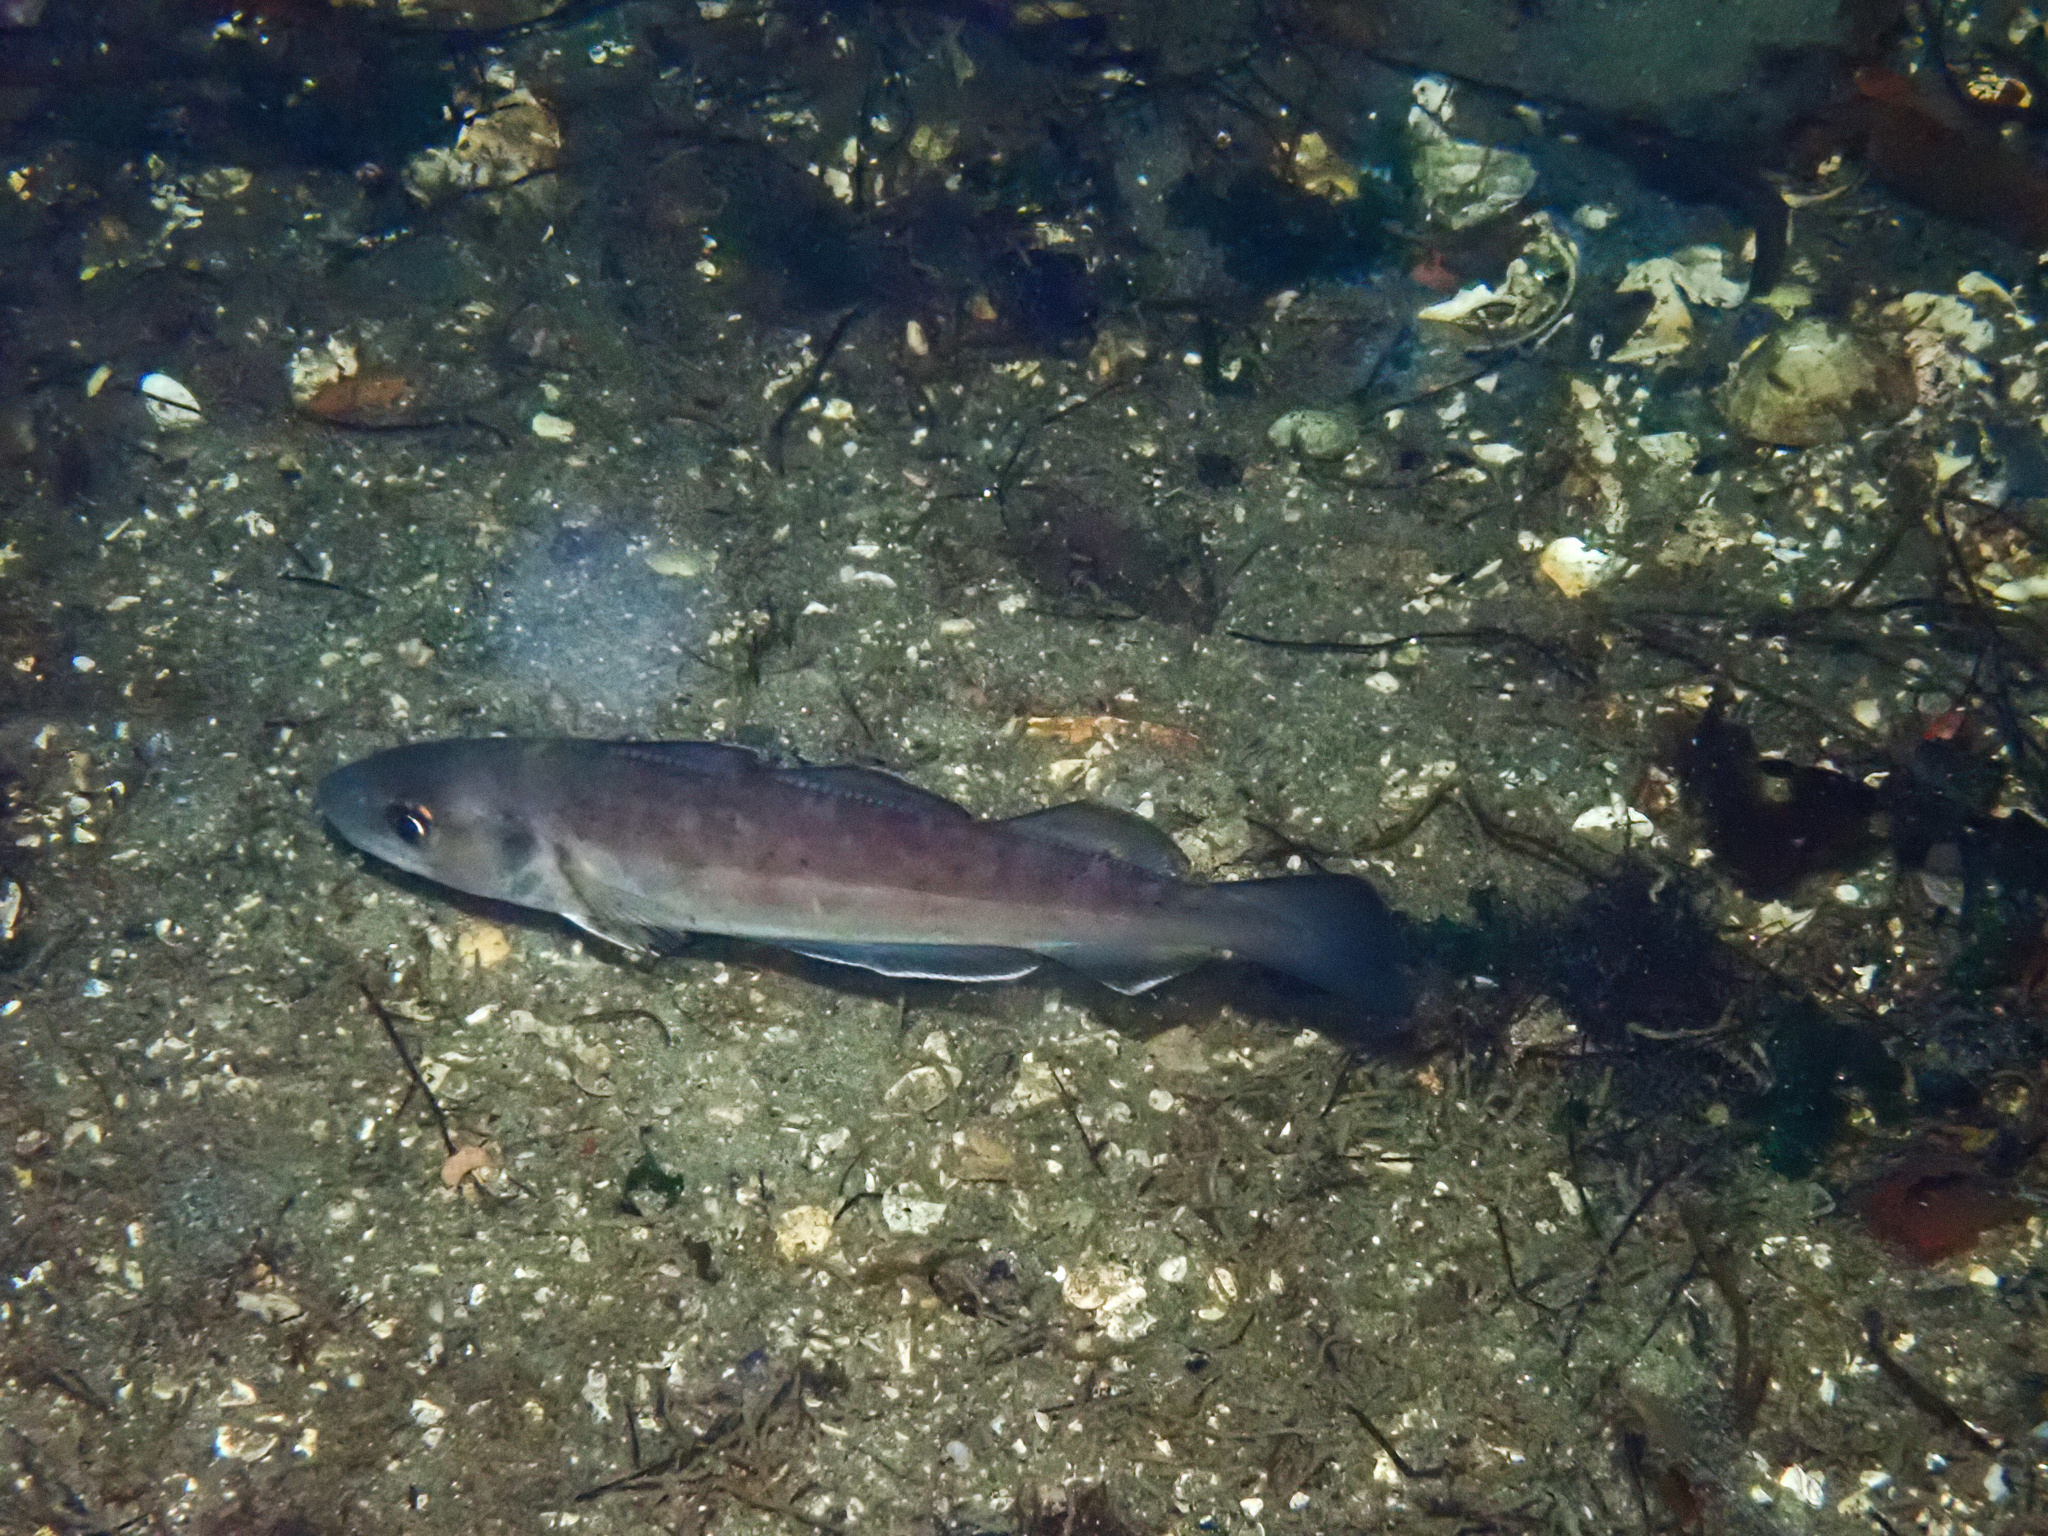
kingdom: Animalia
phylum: Chordata
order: Gadiformes
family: Gadidae
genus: Merlangius
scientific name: Merlangius merlangus
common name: Whiting
